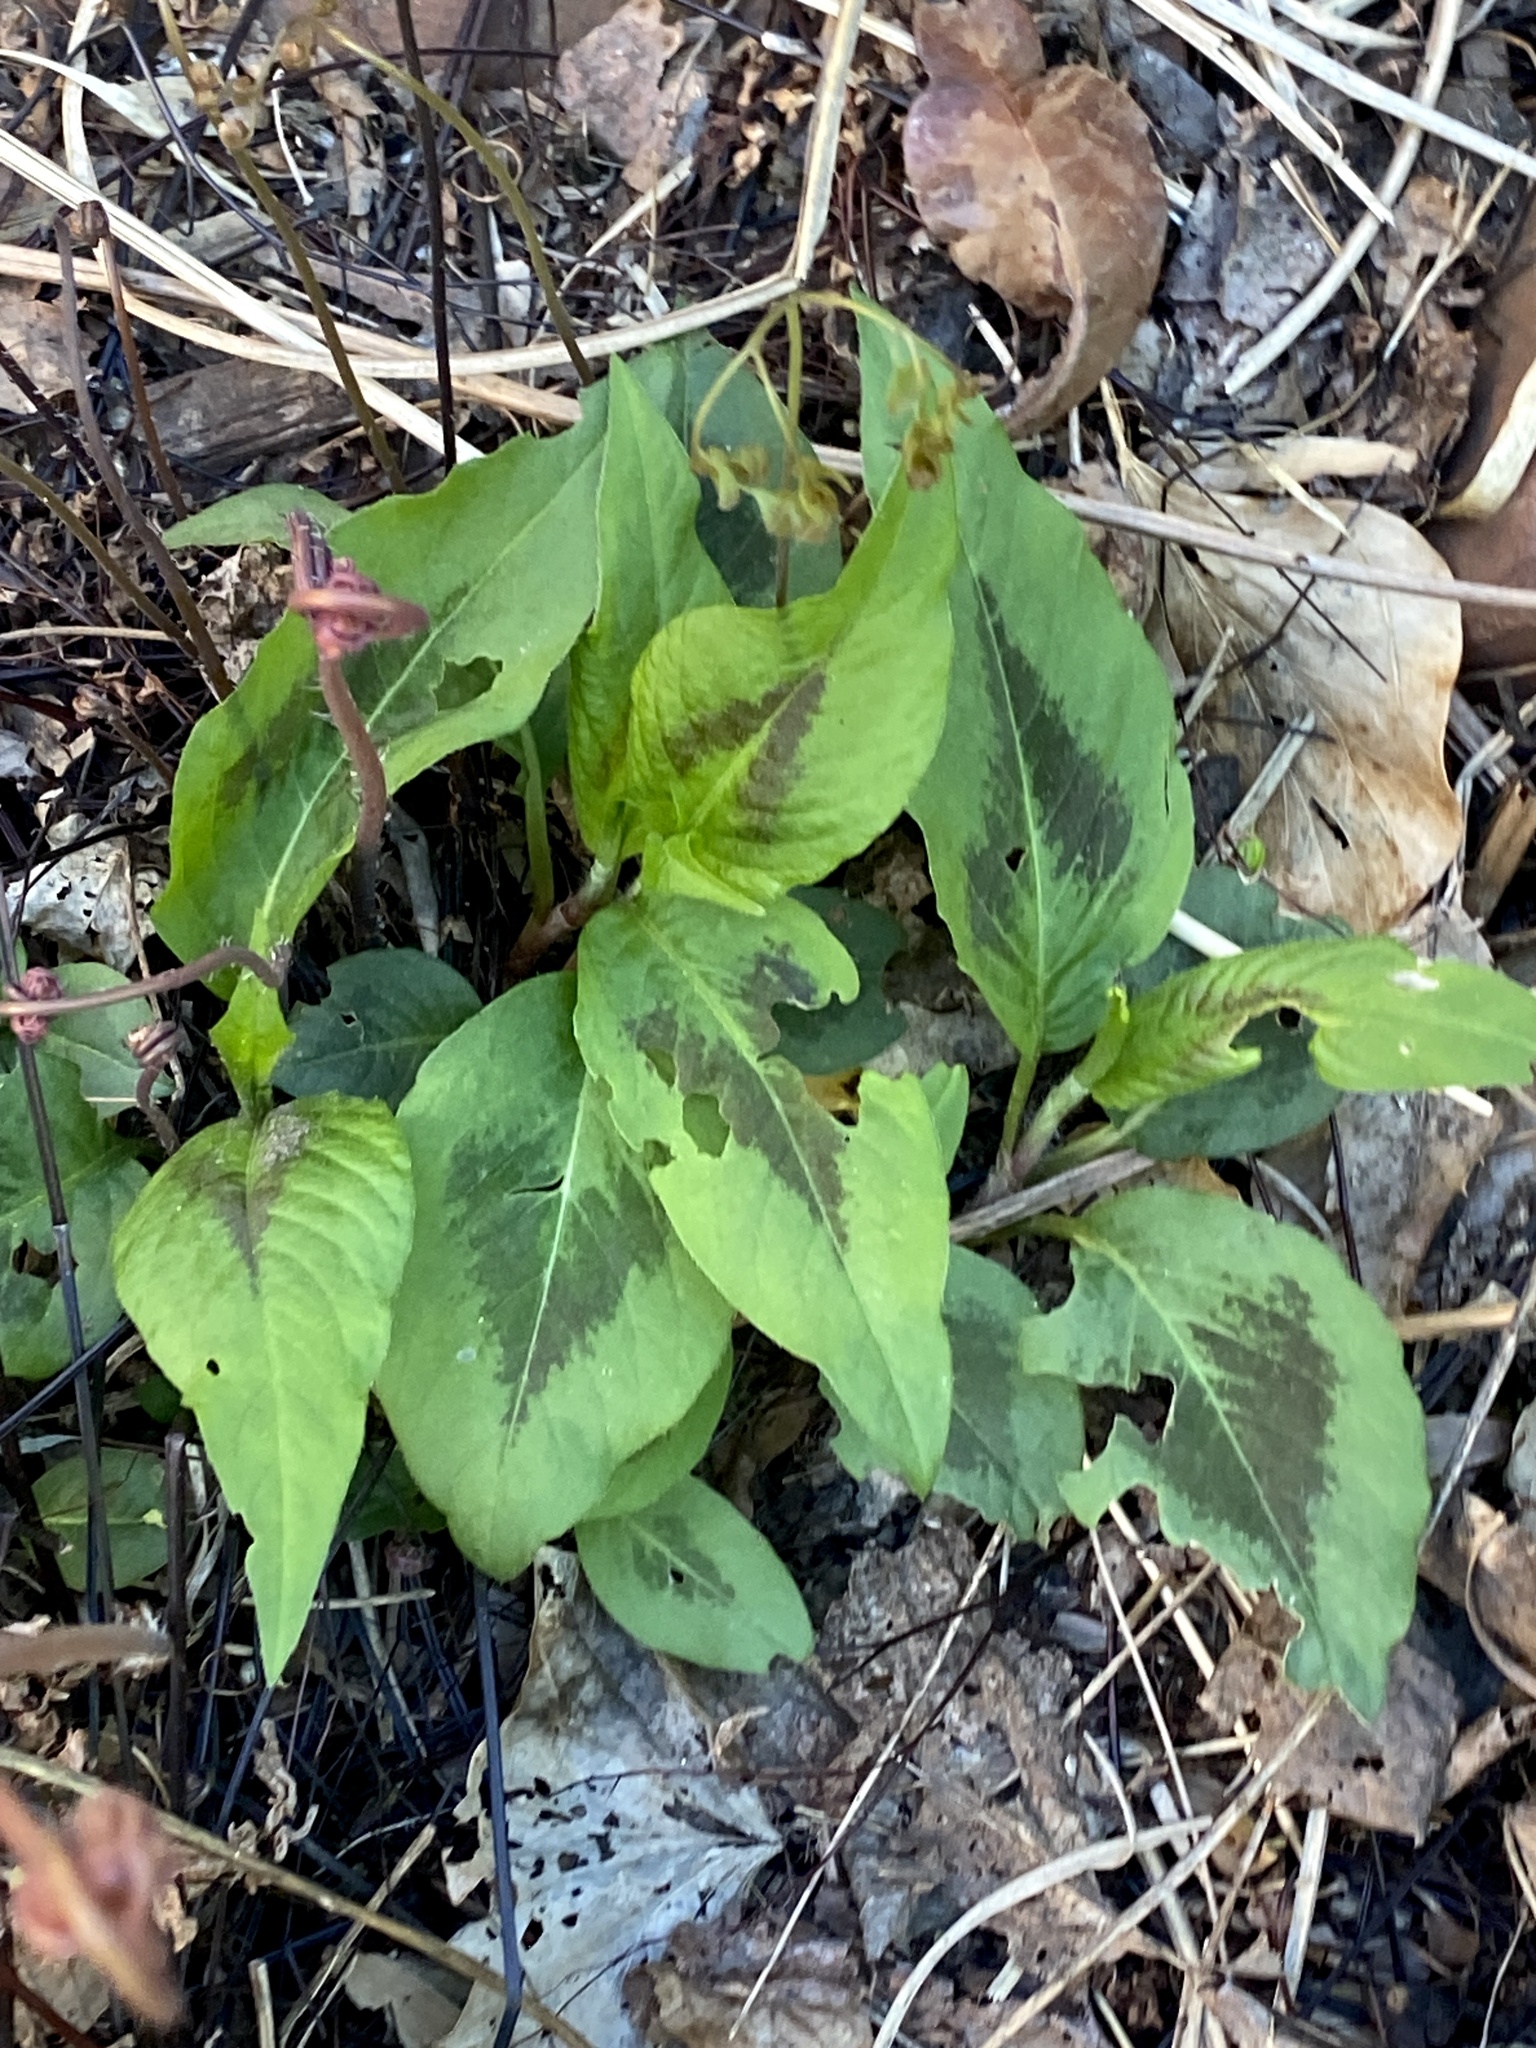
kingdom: Plantae
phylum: Tracheophyta
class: Magnoliopsida
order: Caryophyllales
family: Polygonaceae
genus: Persicaria
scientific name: Persicaria virginiana
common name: Jumpseed
